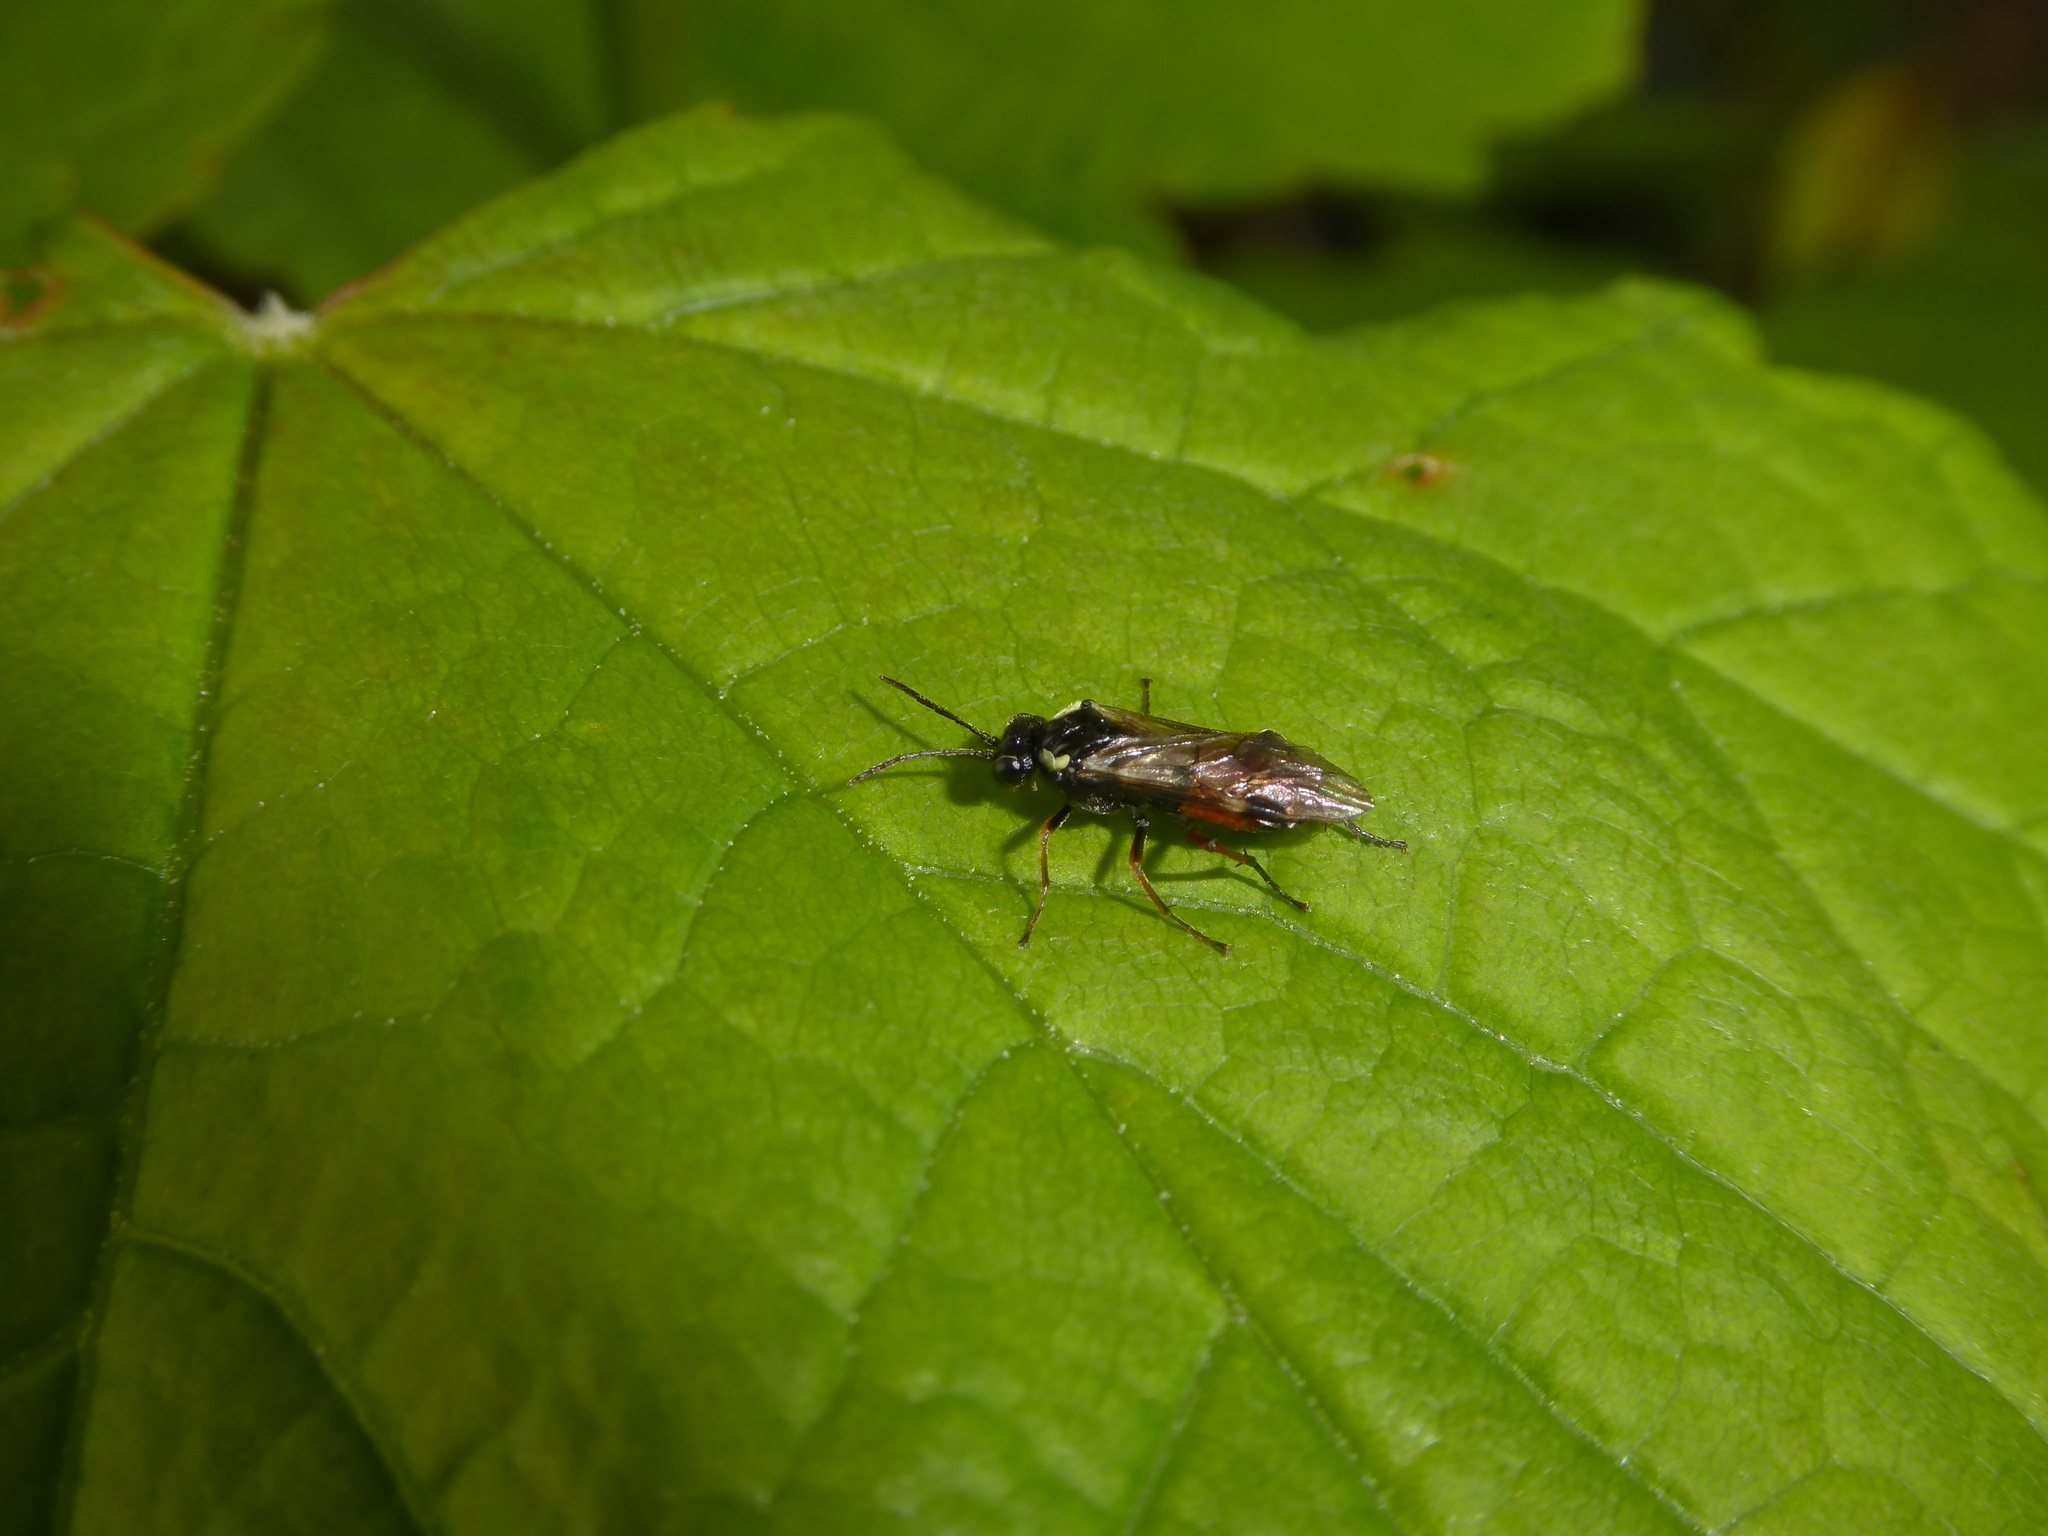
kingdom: Animalia
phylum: Arthropoda
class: Insecta
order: Hymenoptera
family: Tenthredinidae
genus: Aglaostigma
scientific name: Aglaostigma aucupariae
